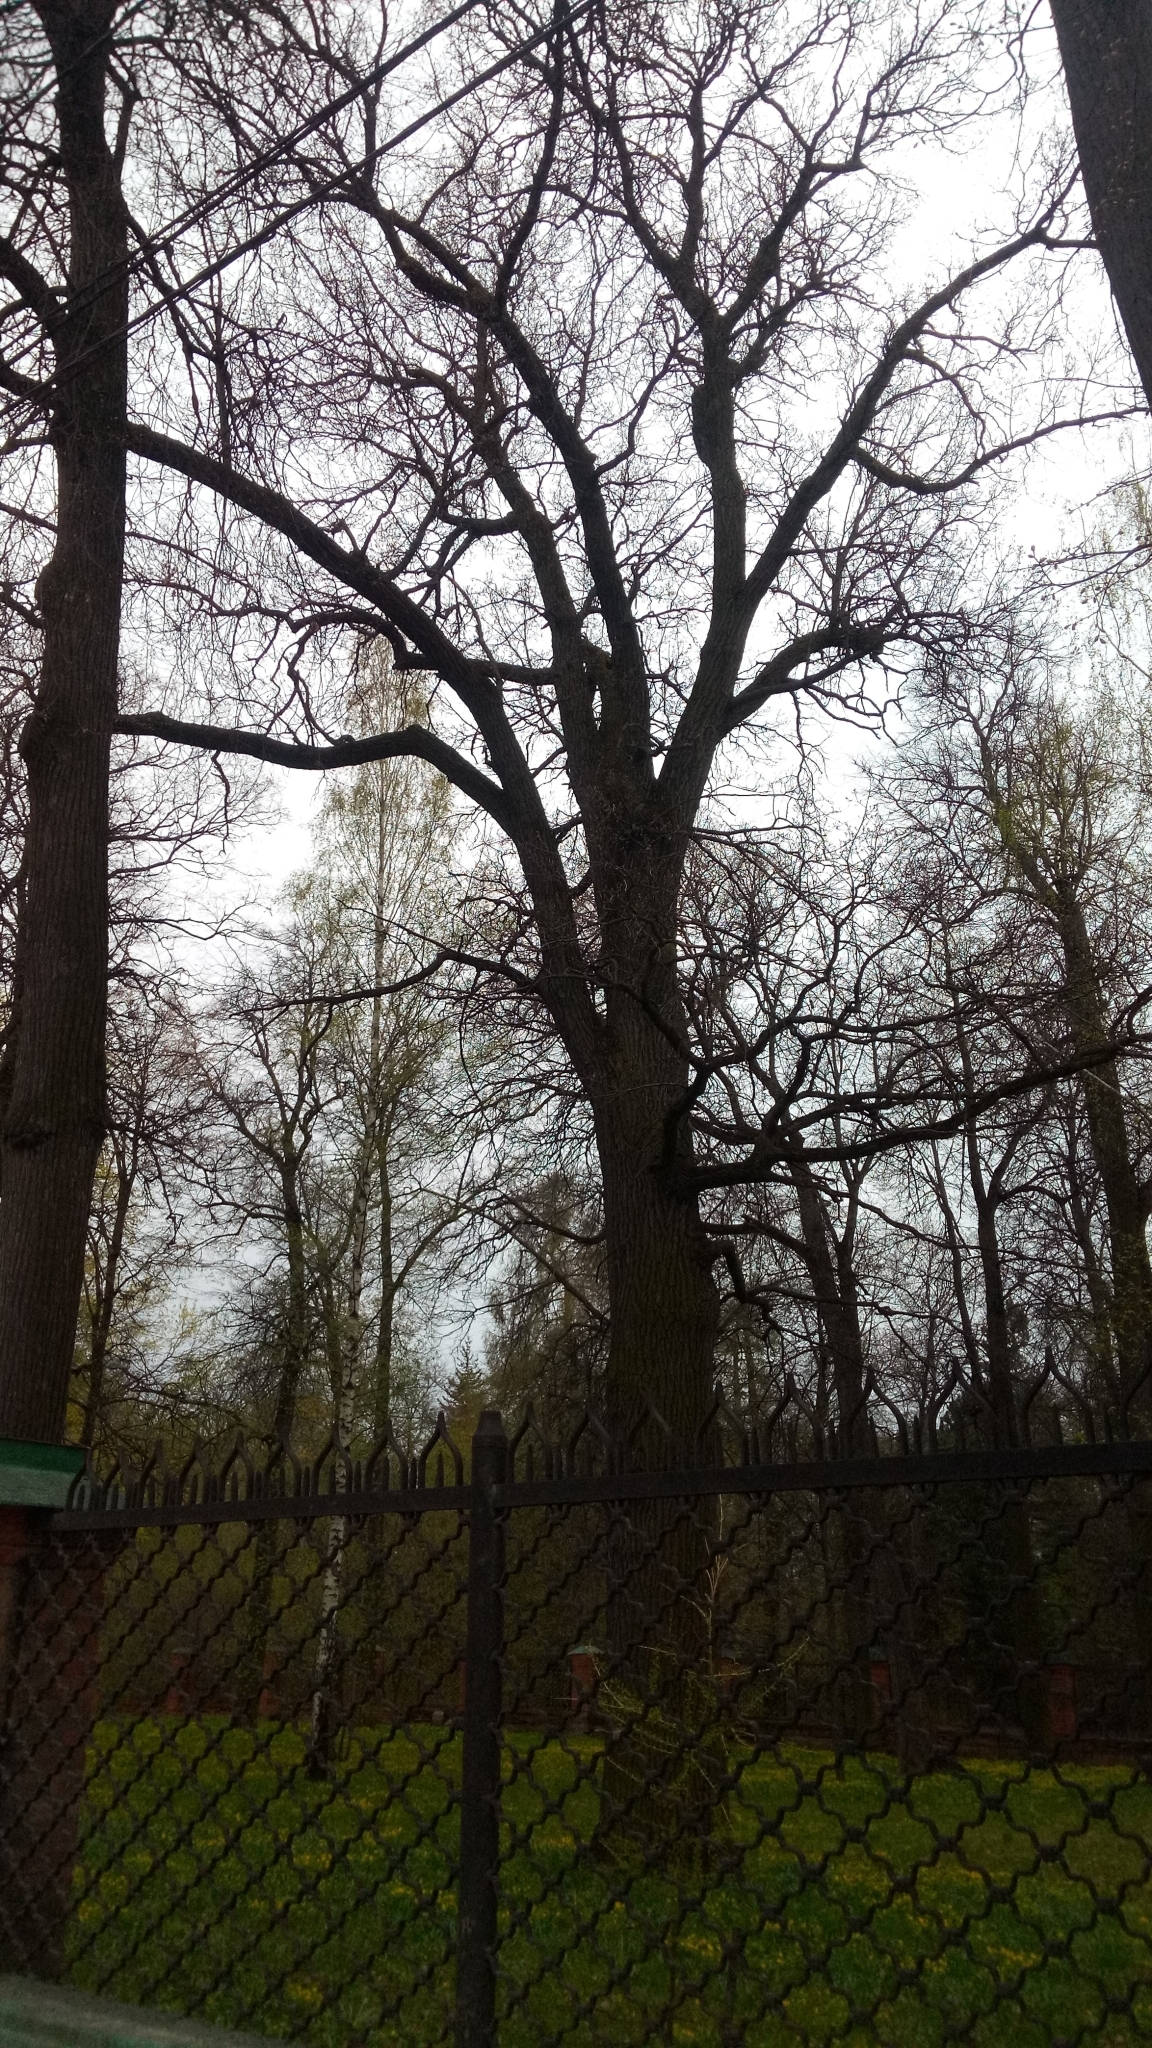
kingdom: Plantae
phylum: Tracheophyta
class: Magnoliopsida
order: Fagales
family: Fagaceae
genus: Quercus
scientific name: Quercus robur
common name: Pedunculate oak
